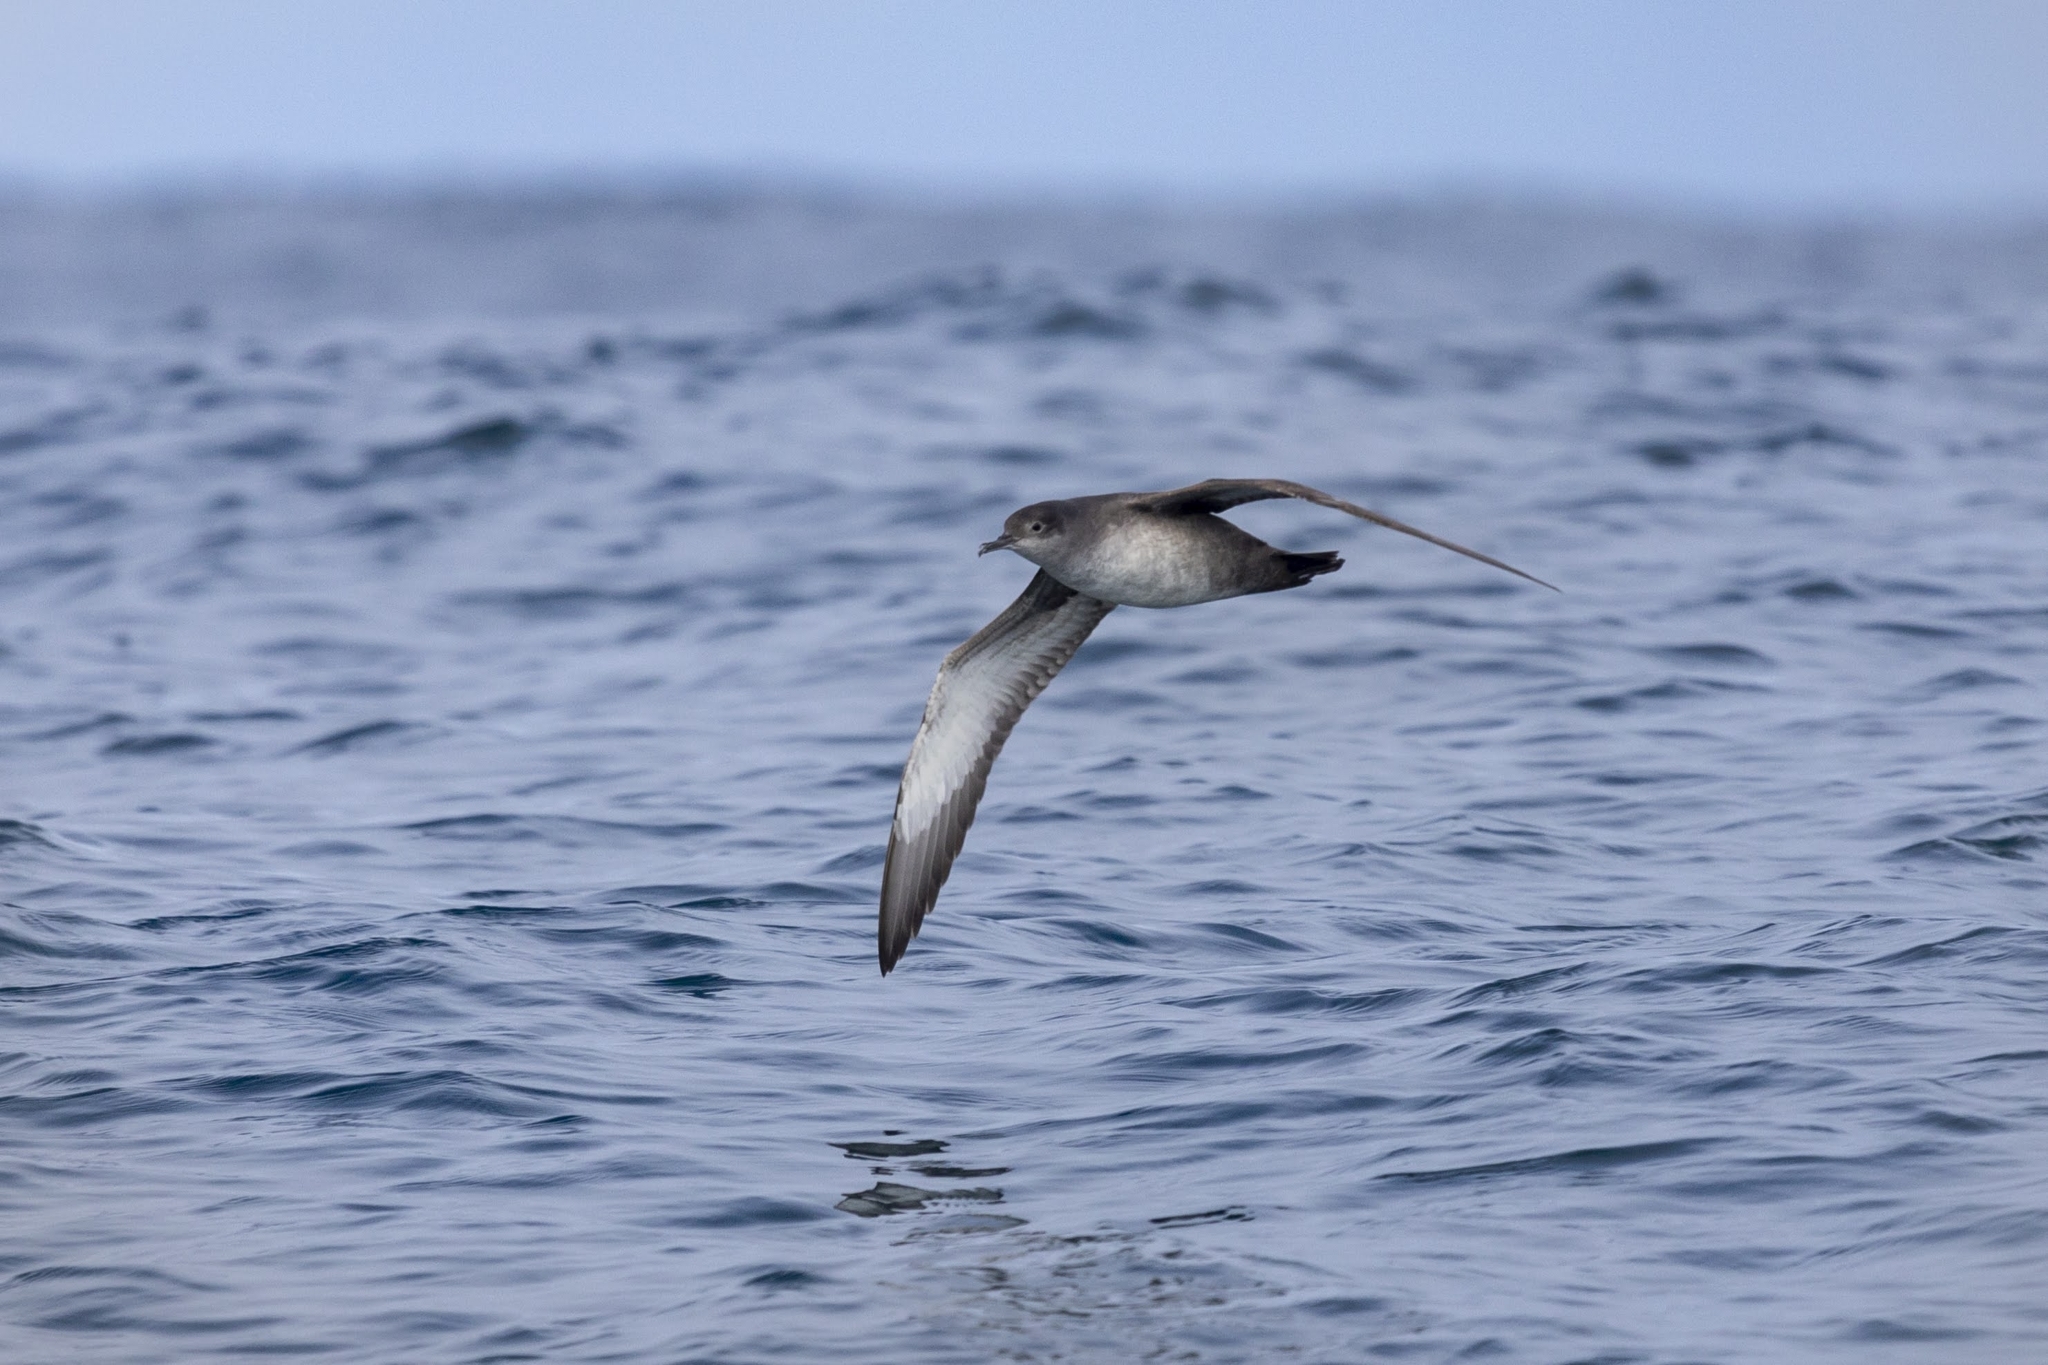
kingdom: Animalia
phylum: Chordata
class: Aves
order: Procellariiformes
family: Procellariidae
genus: Puffinus
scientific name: Puffinus mauretanicus
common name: Balearic shearwater
